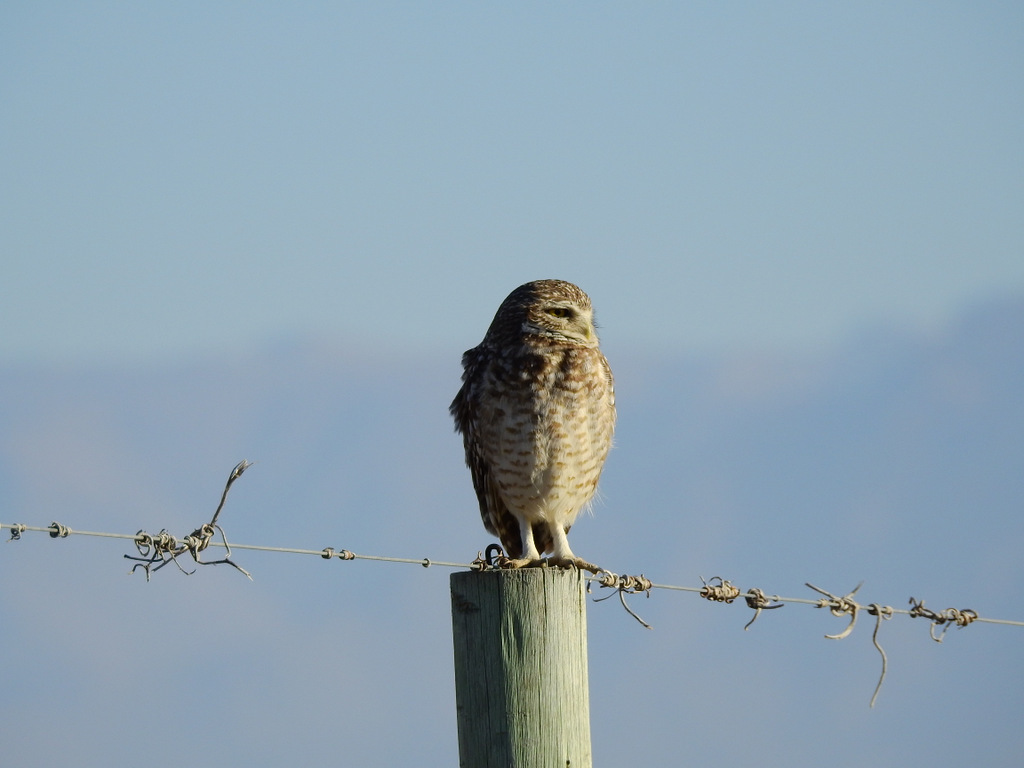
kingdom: Animalia
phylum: Chordata
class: Aves
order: Strigiformes
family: Strigidae
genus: Athene
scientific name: Athene cunicularia
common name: Burrowing owl
